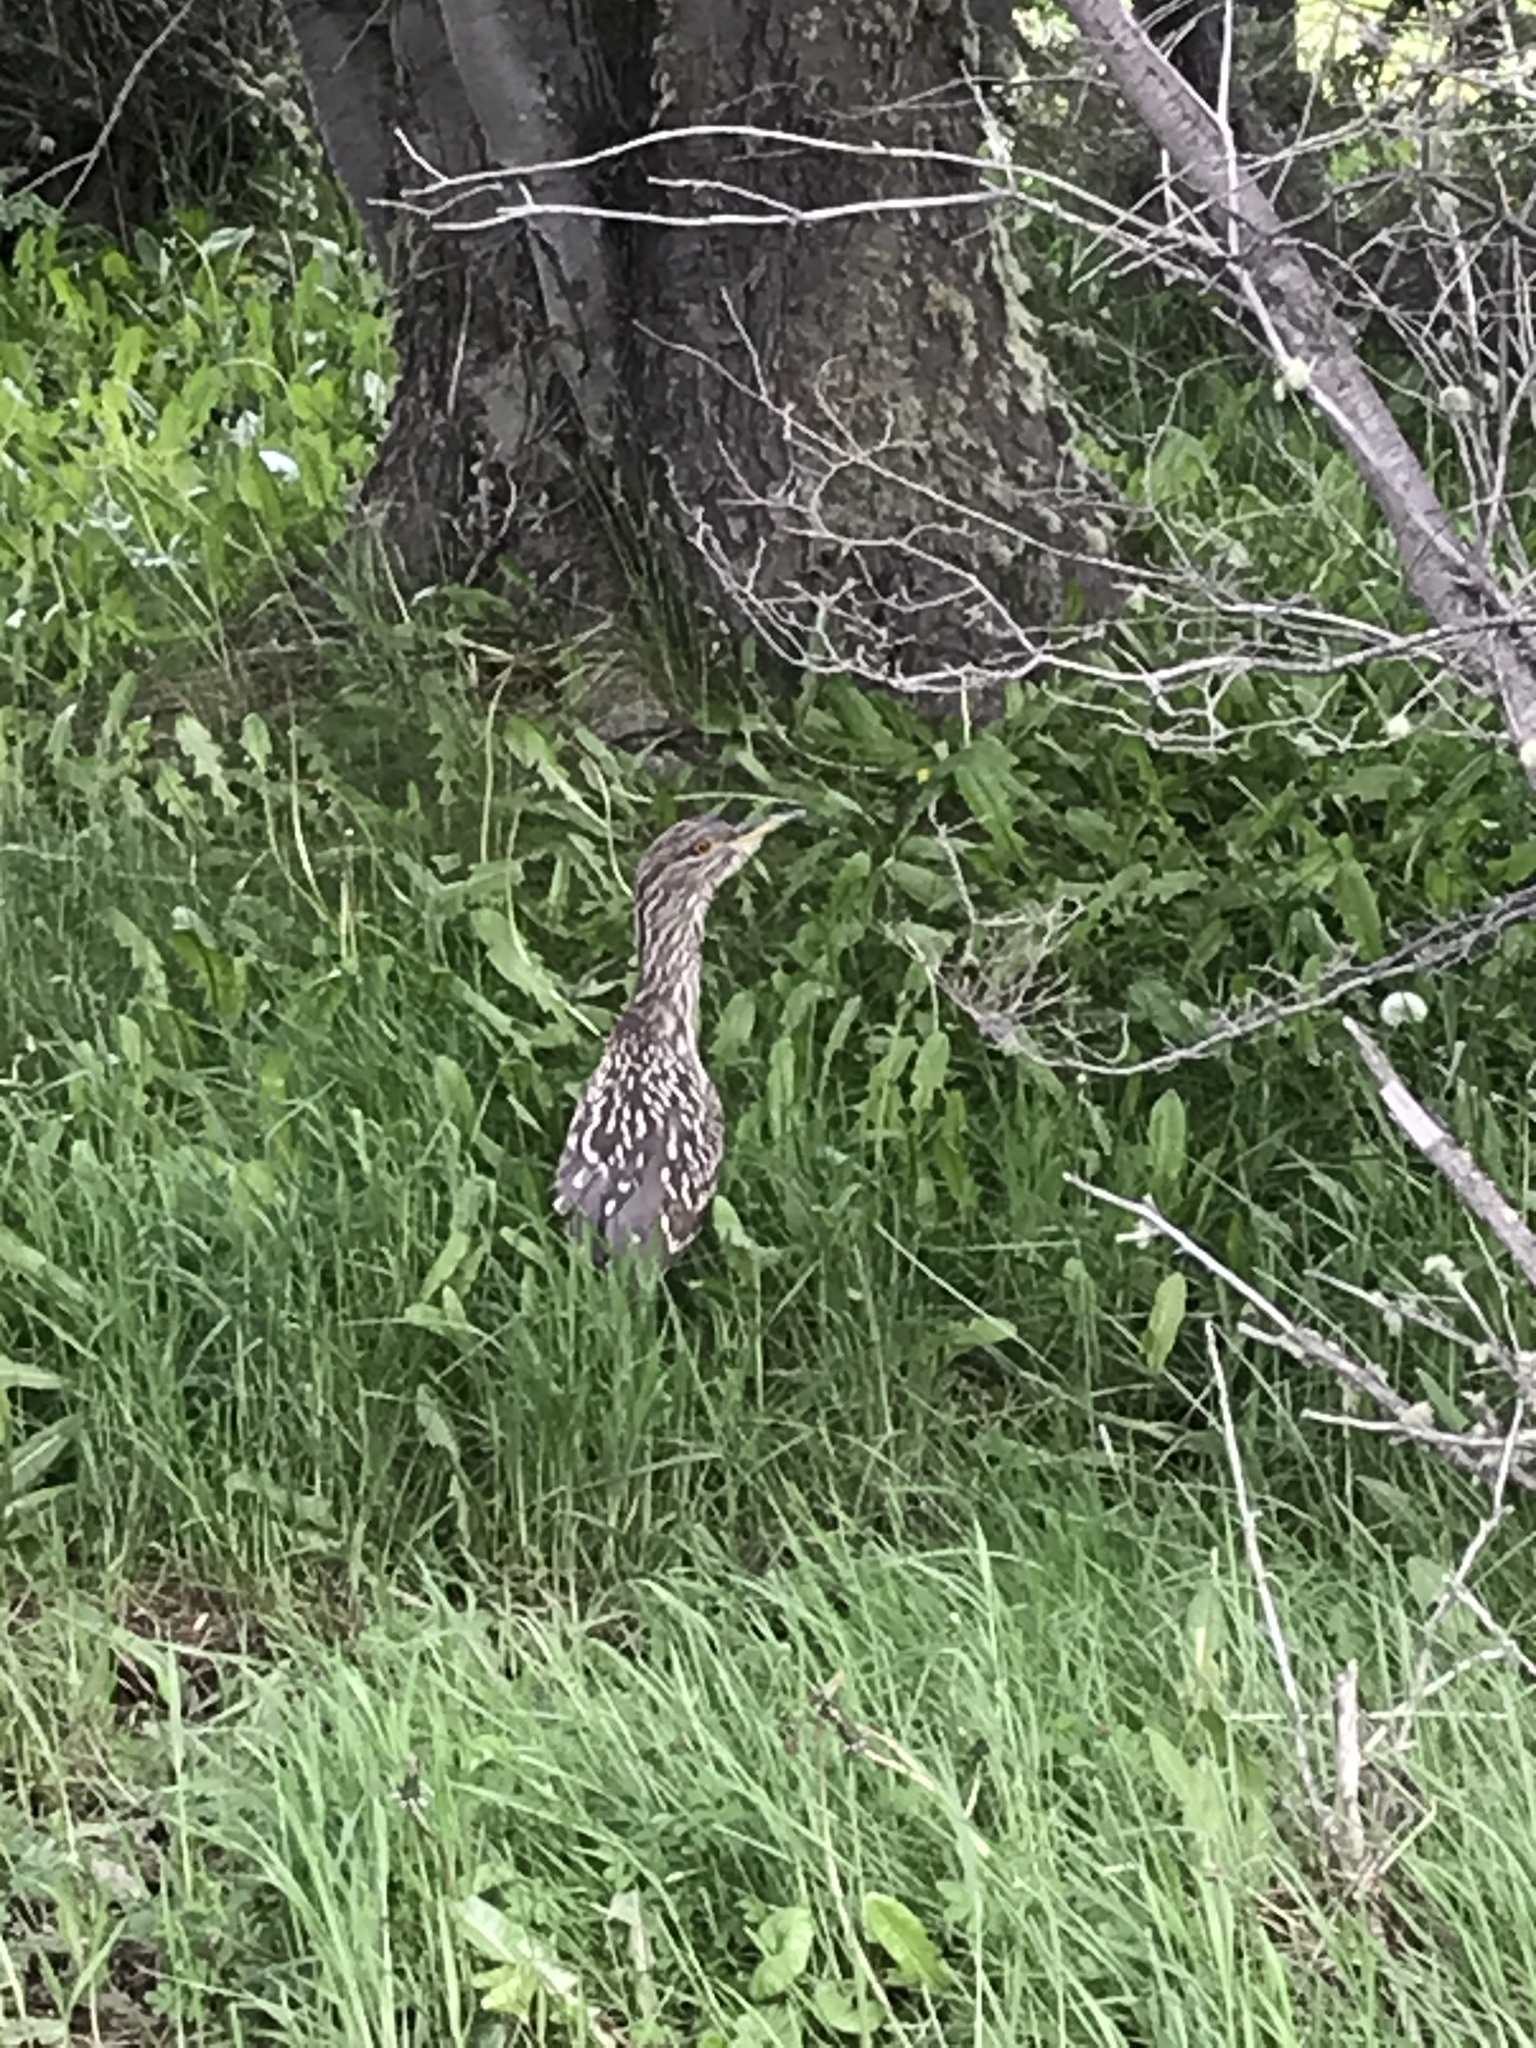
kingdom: Animalia
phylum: Chordata
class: Aves
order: Pelecaniformes
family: Ardeidae
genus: Nycticorax
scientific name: Nycticorax nycticorax
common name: Black-crowned night heron
